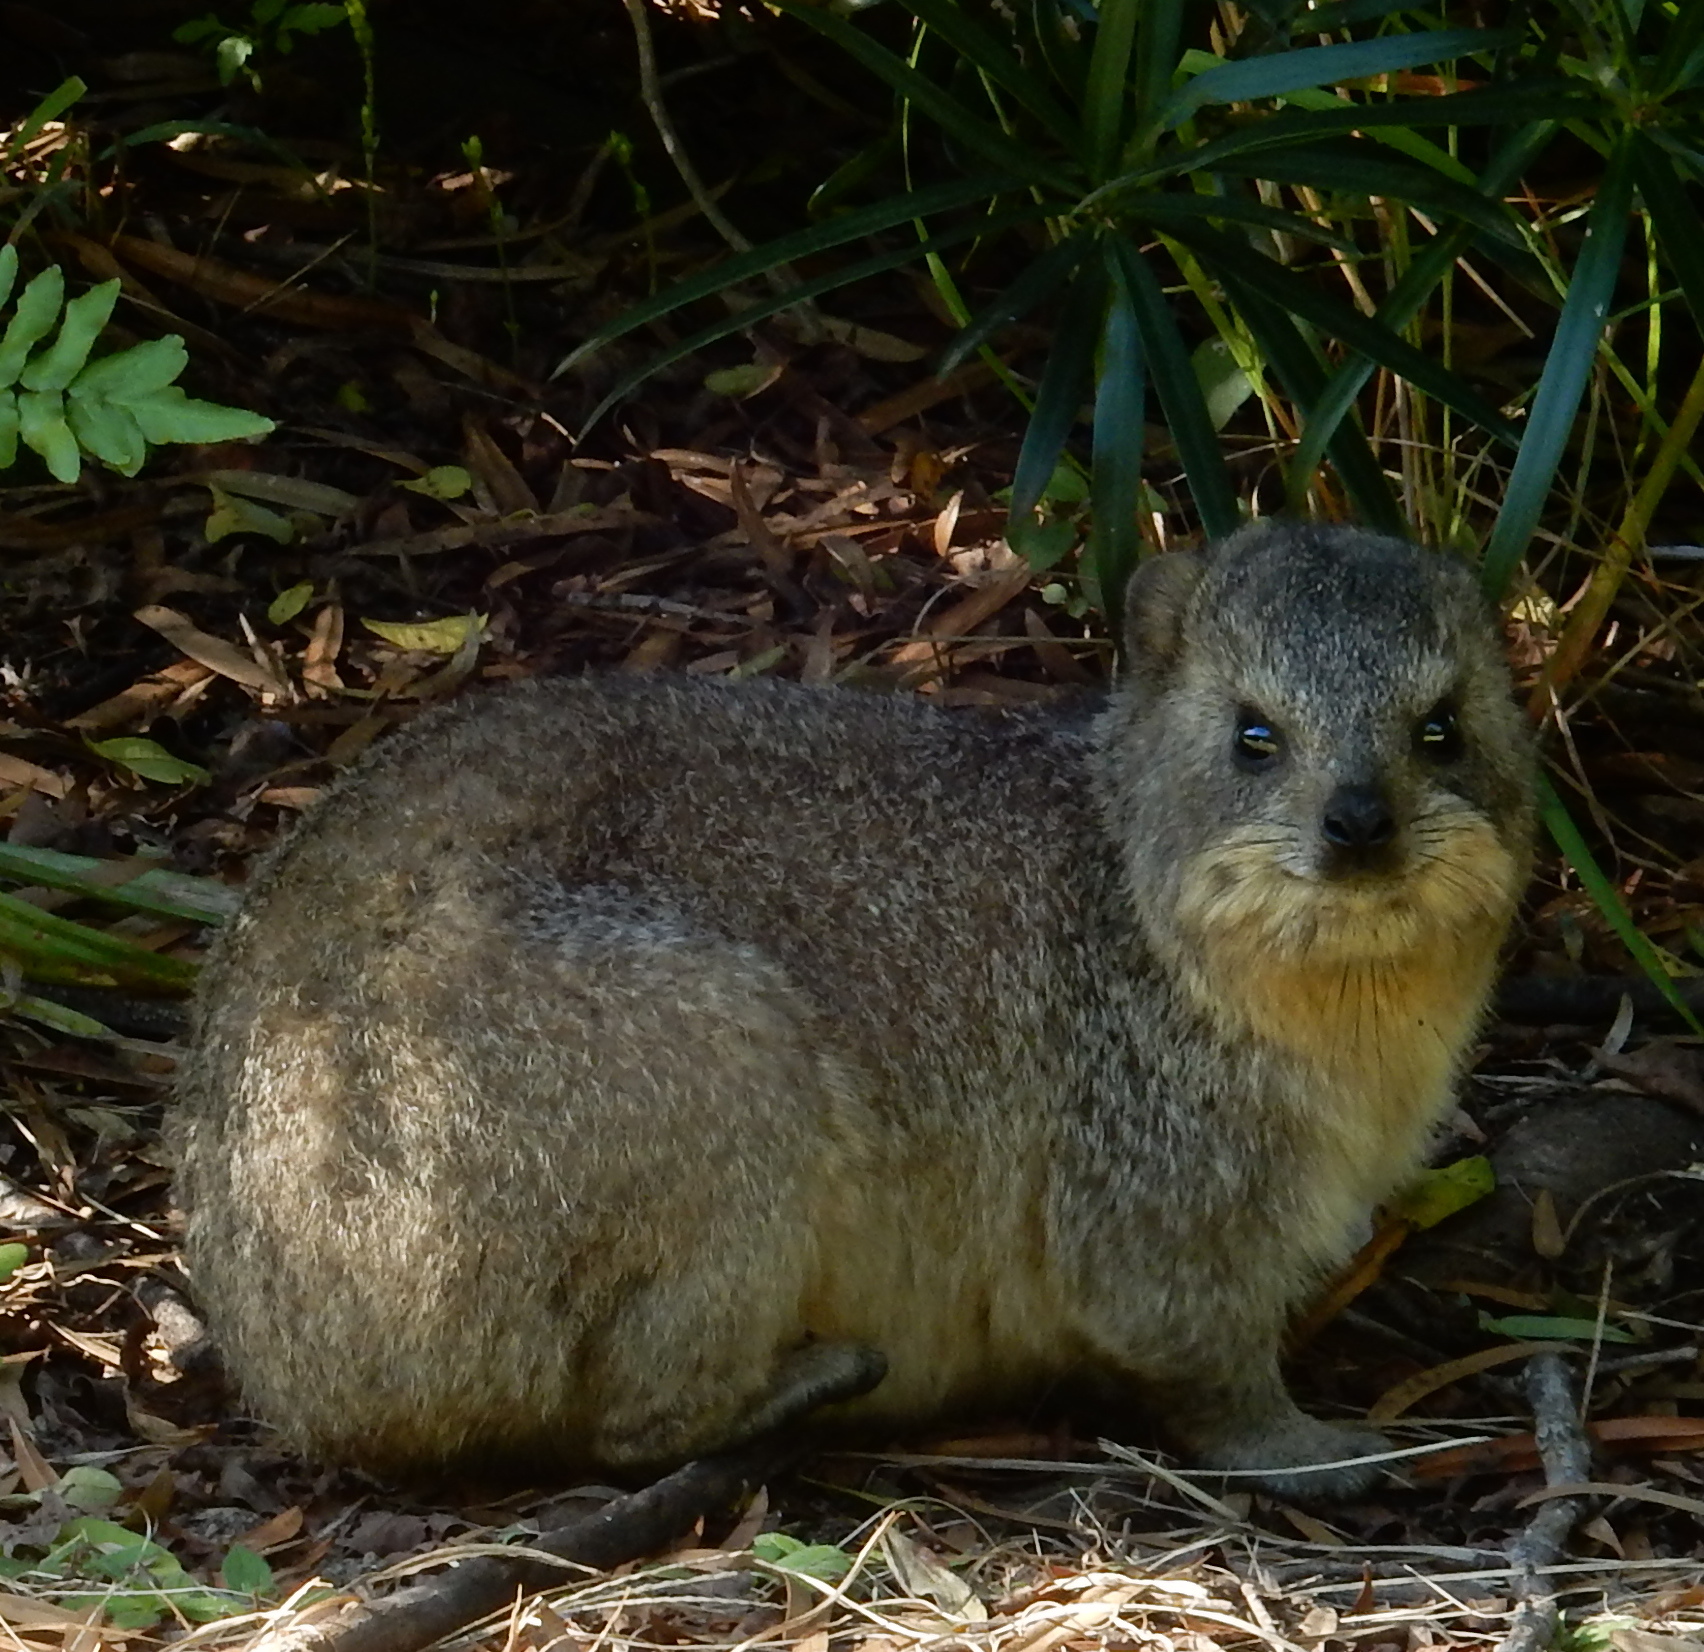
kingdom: Animalia
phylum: Chordata
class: Mammalia
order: Hyracoidea
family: Procaviidae
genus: Procavia
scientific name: Procavia capensis
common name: Rock hyrax
